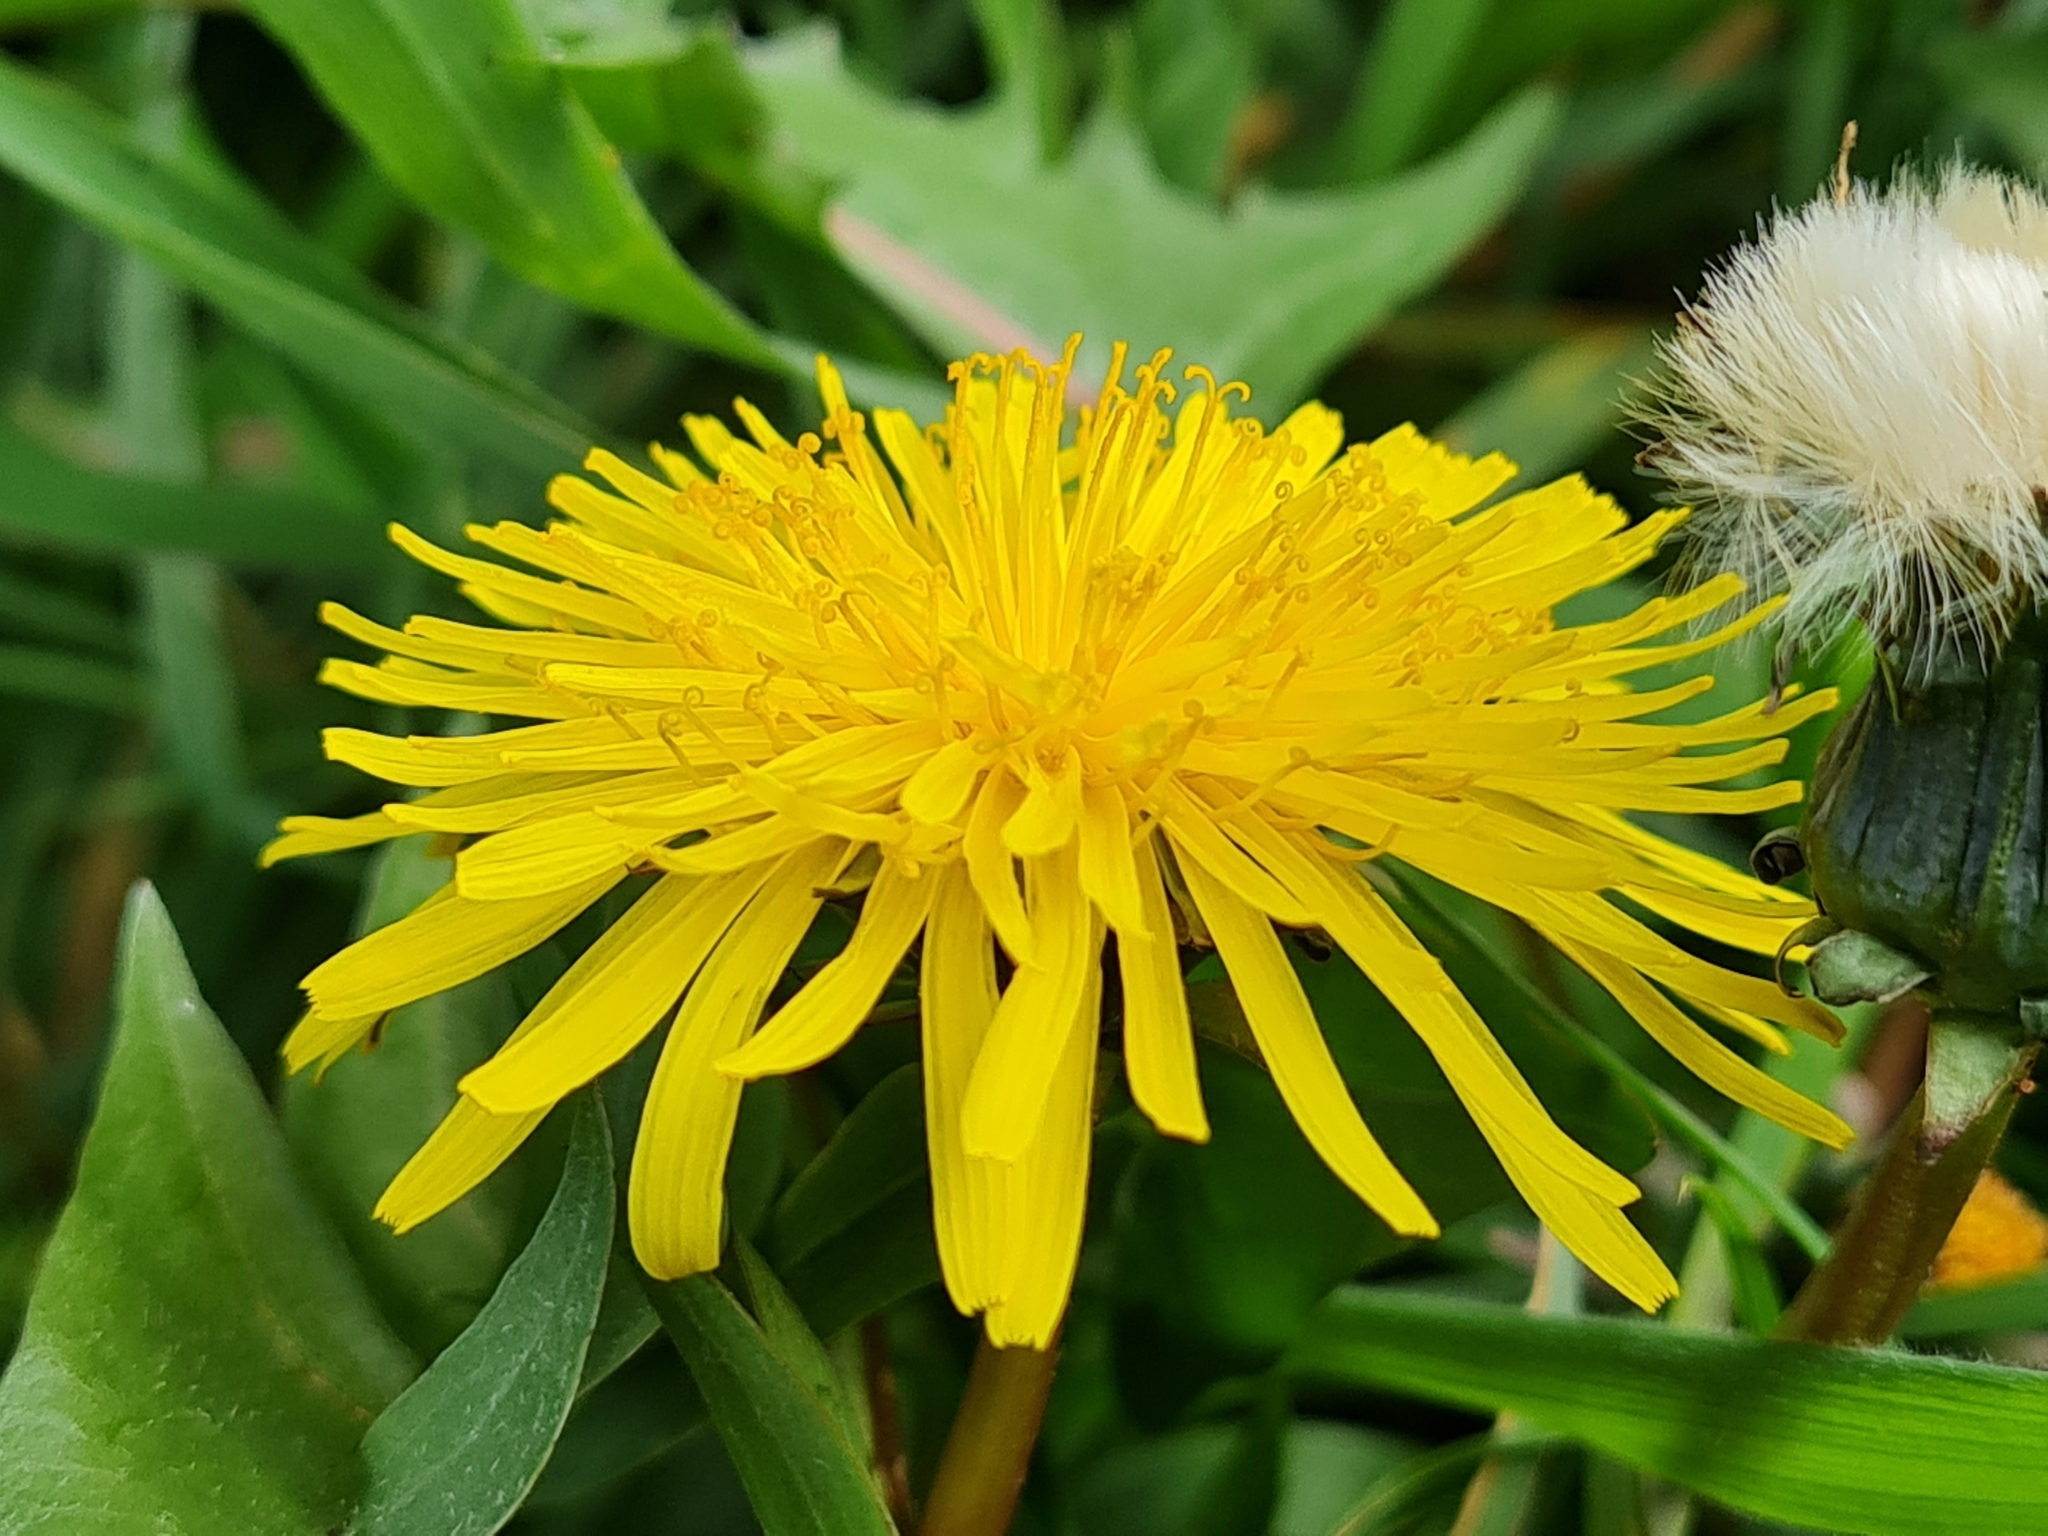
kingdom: Plantae
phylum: Tracheophyta
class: Magnoliopsida
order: Asterales
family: Asteraceae
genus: Taraxacum
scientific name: Taraxacum officinale
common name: Common dandelion
